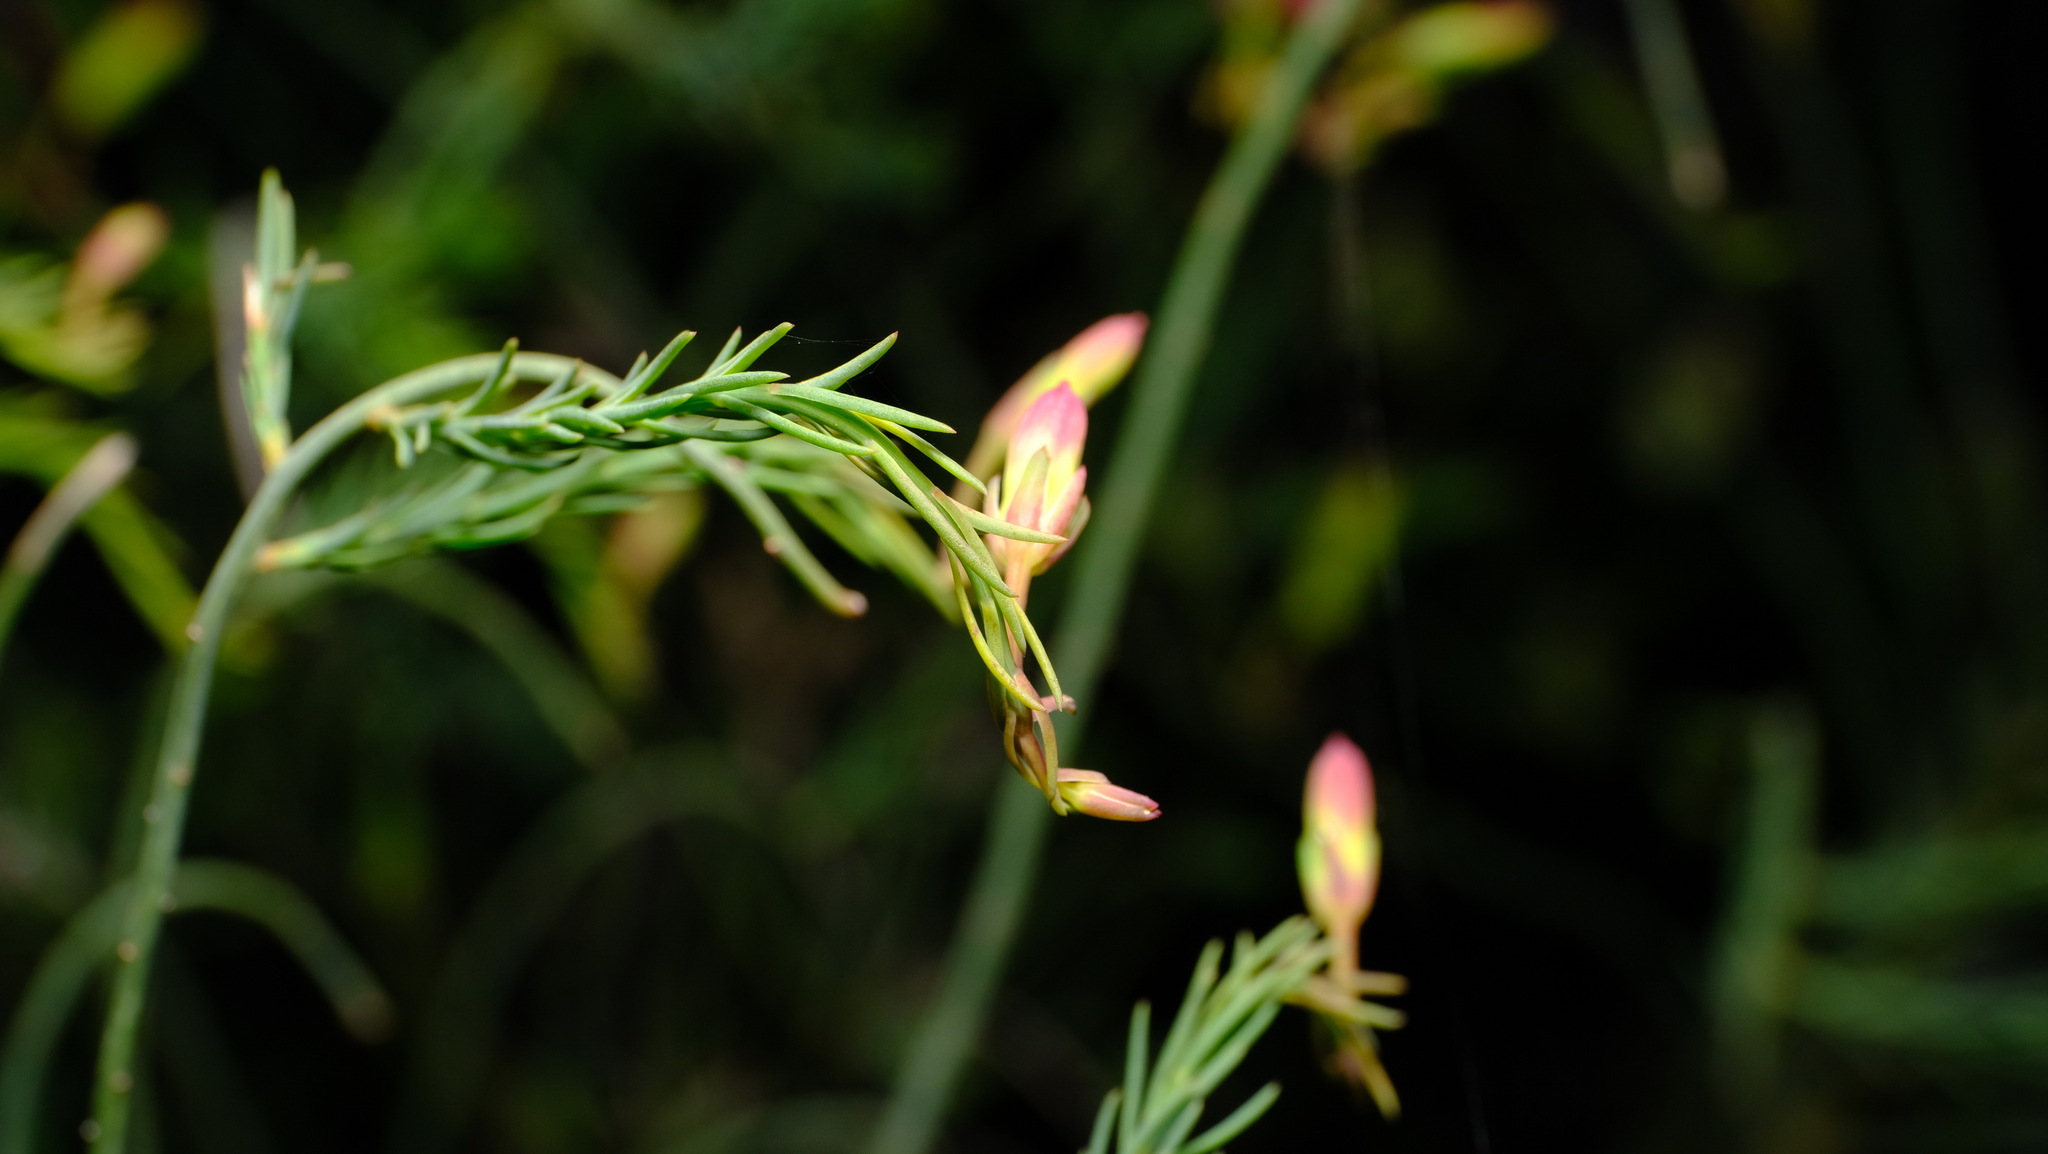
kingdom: Plantae
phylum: Tracheophyta
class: Magnoliopsida
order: Asterales
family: Goodeniaceae
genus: Lechenaultia
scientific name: Lechenaultia linarioides
